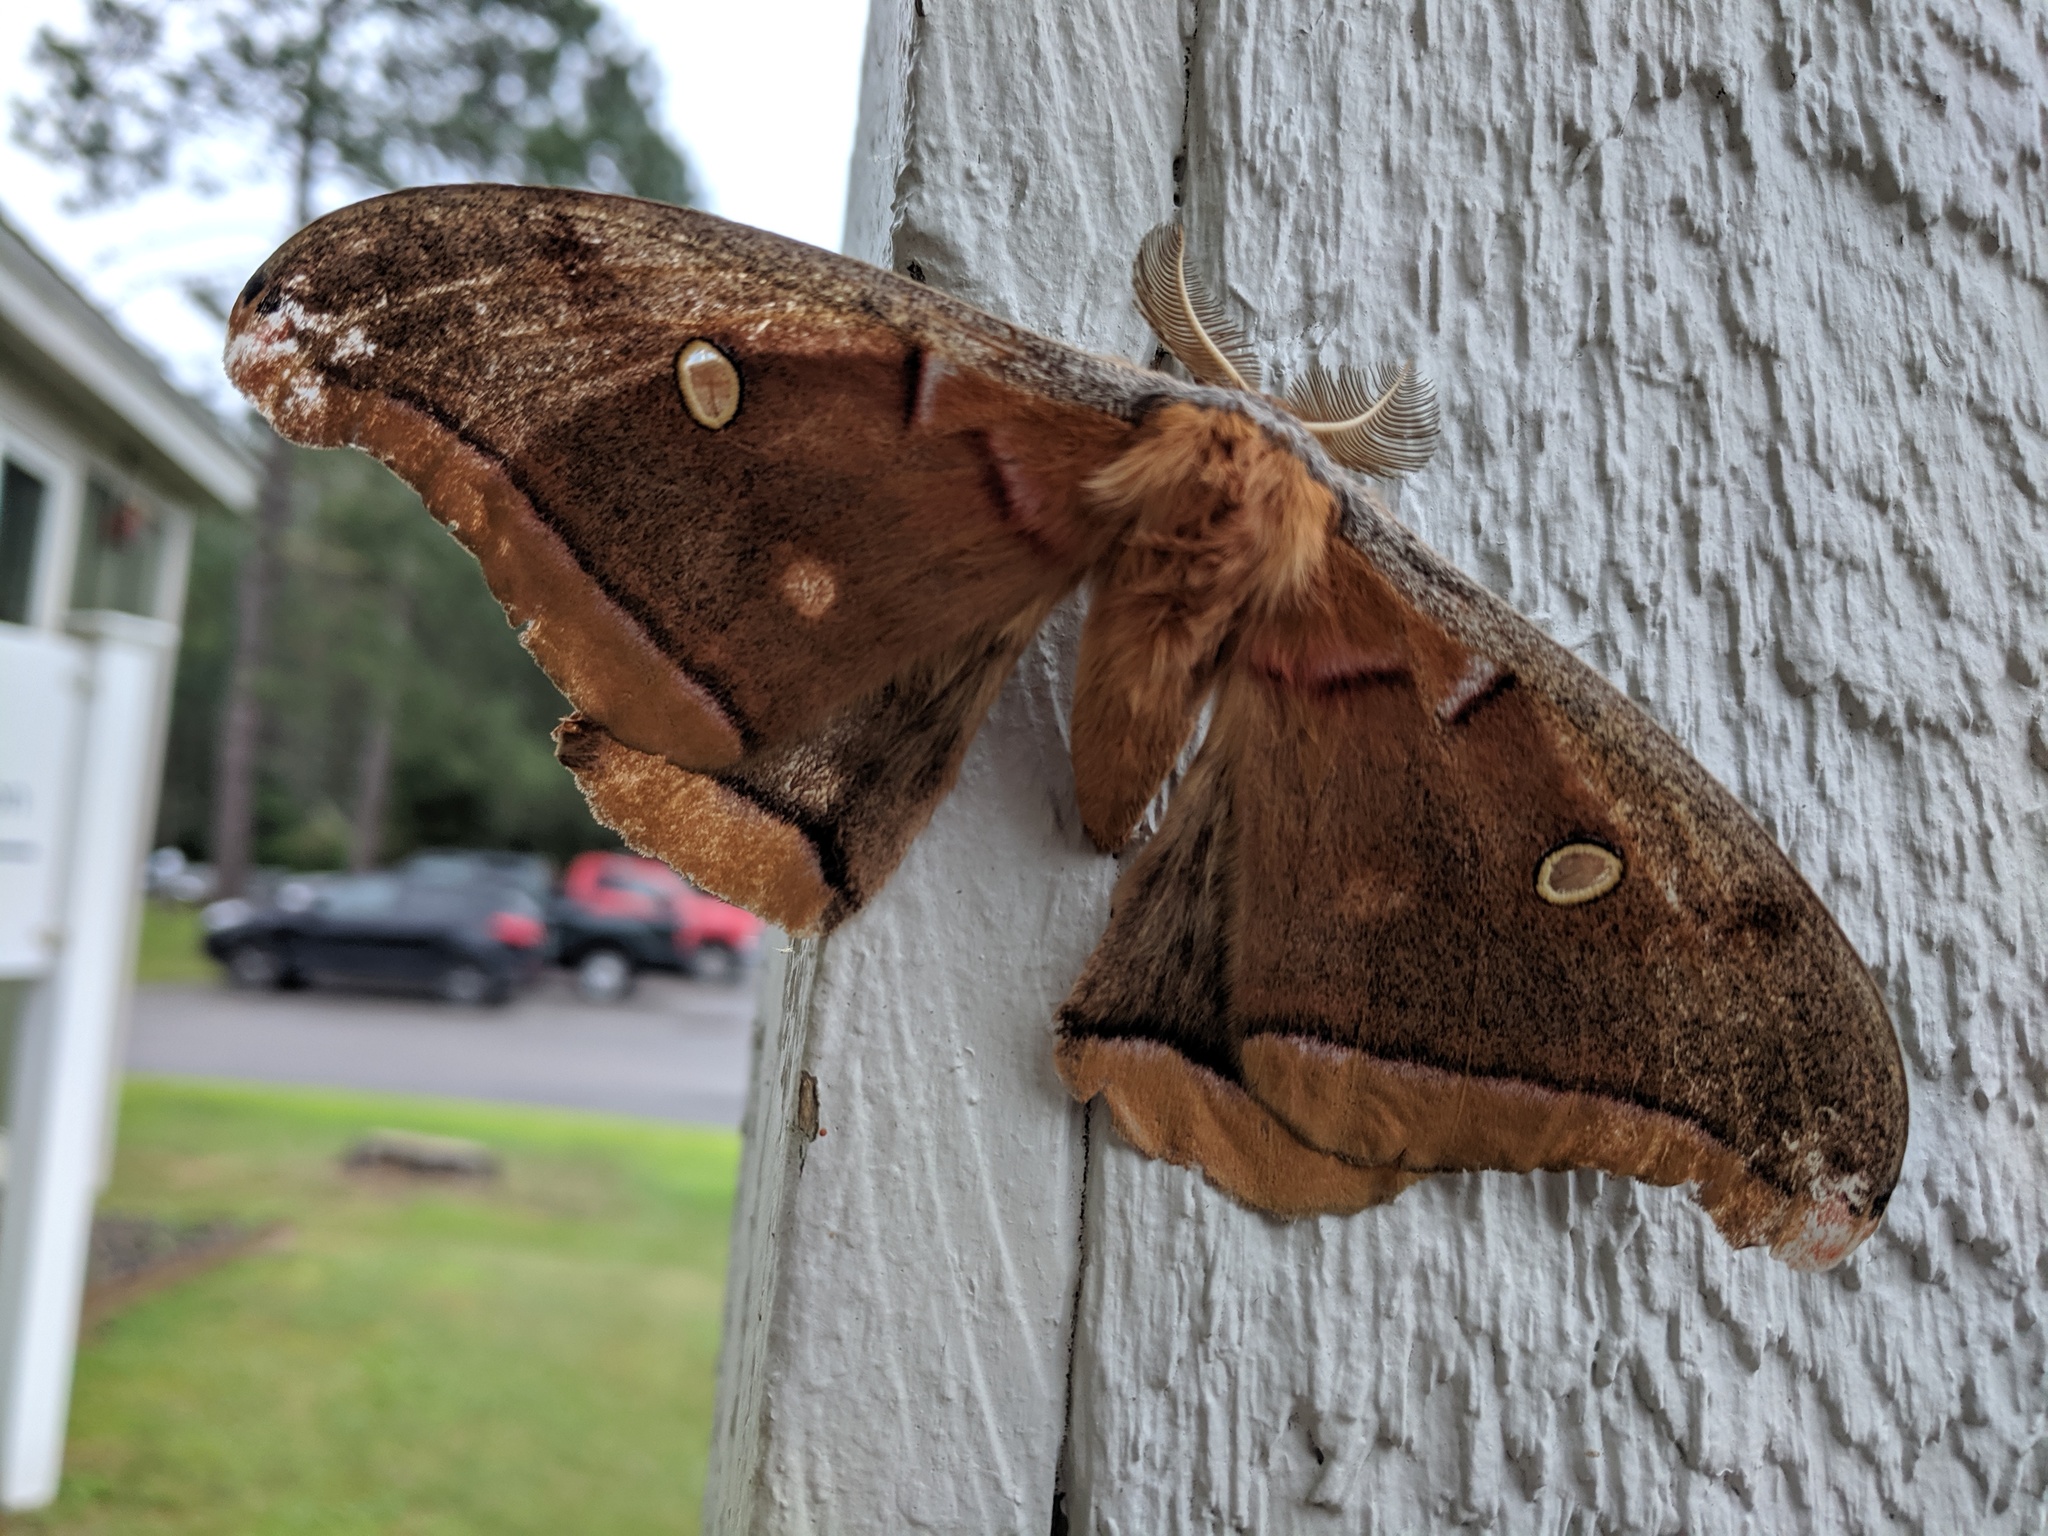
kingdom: Animalia
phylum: Arthropoda
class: Insecta
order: Lepidoptera
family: Saturniidae
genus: Antheraea
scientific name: Antheraea polyphemus
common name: Polyphemus moth
